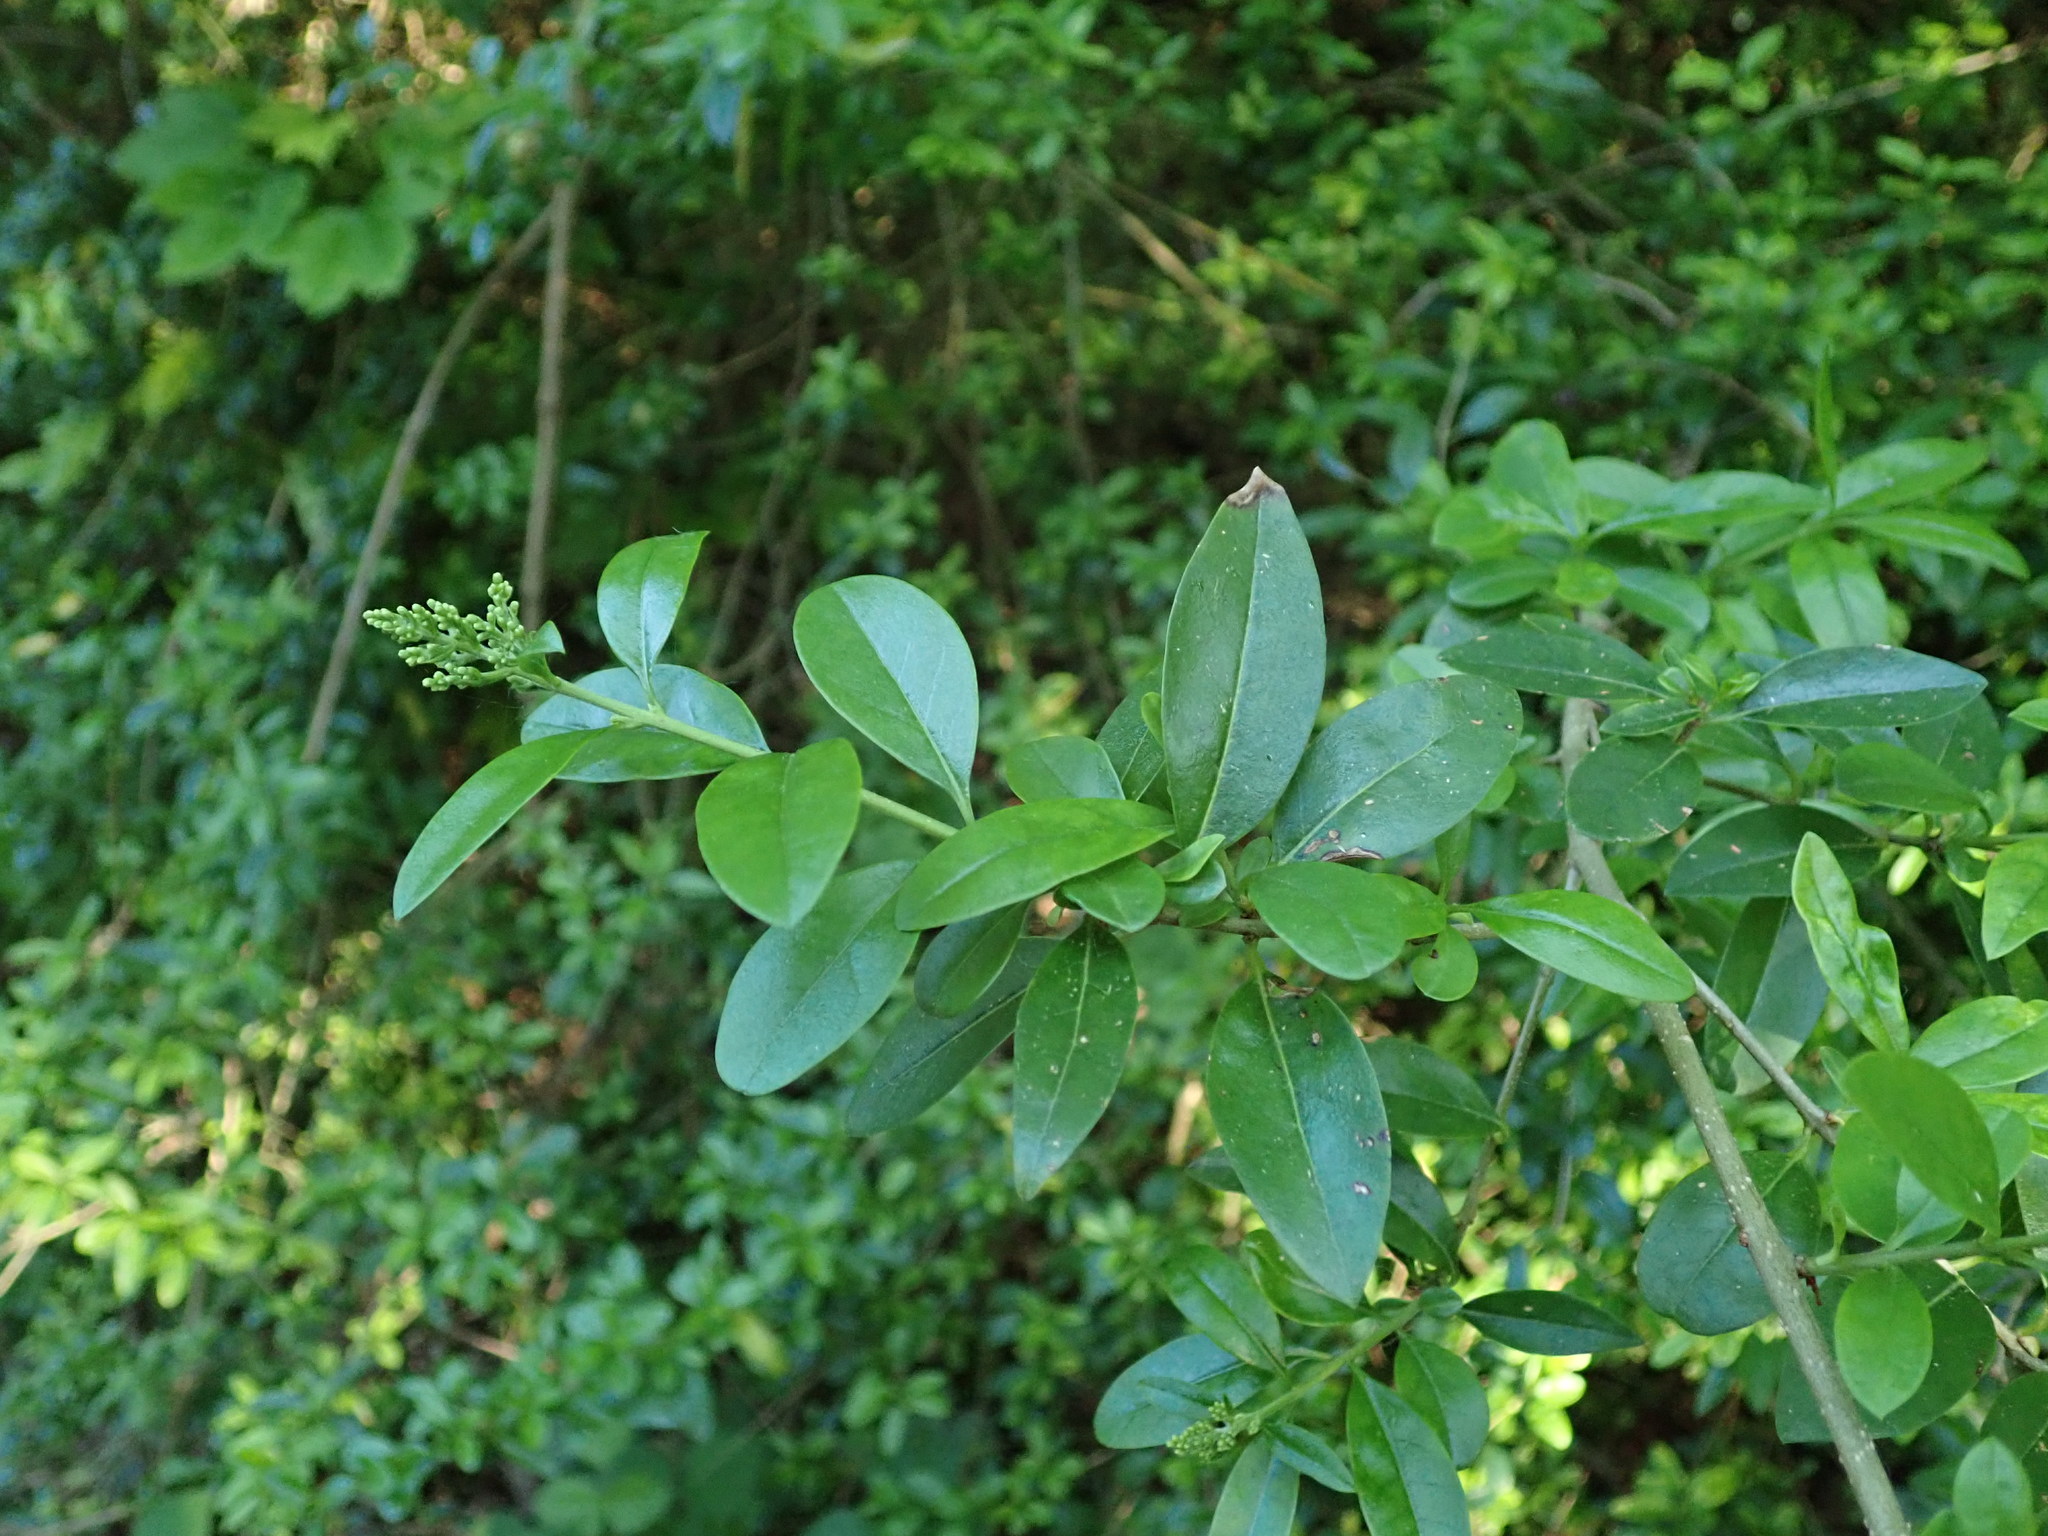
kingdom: Plantae
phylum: Tracheophyta
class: Magnoliopsida
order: Lamiales
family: Oleaceae
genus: Ligustrum
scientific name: Ligustrum vulgare
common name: Wild privet
